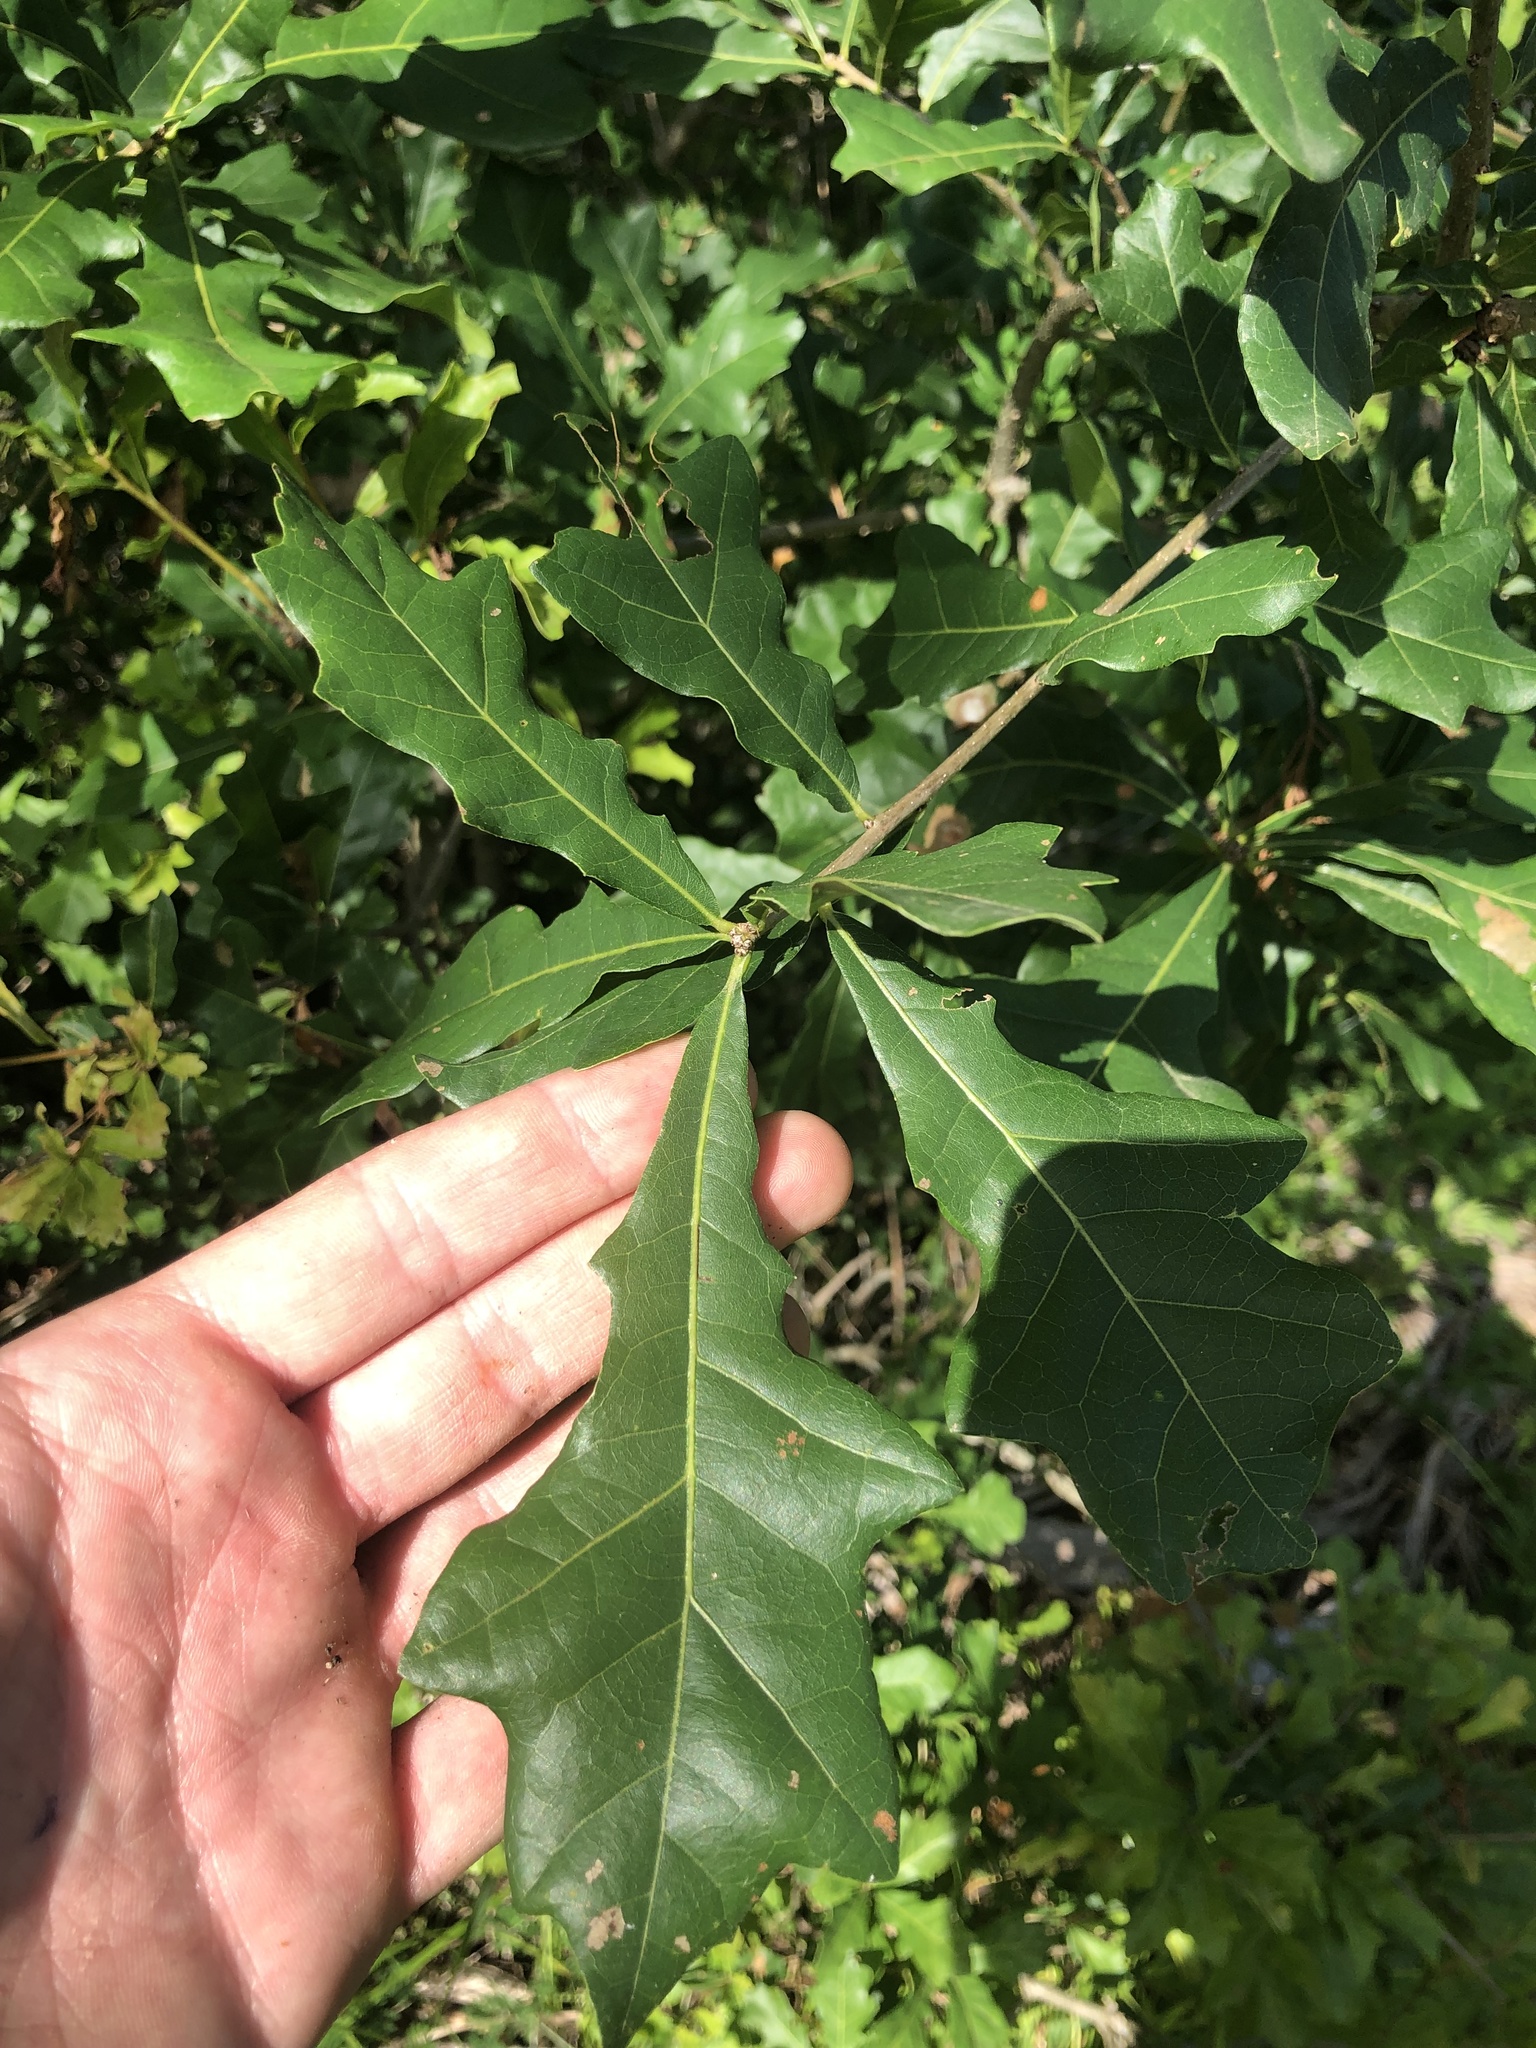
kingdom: Plantae
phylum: Tracheophyta
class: Magnoliopsida
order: Fagales
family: Fagaceae
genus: Quercus
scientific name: Quercus sinuata
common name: Durand oak
